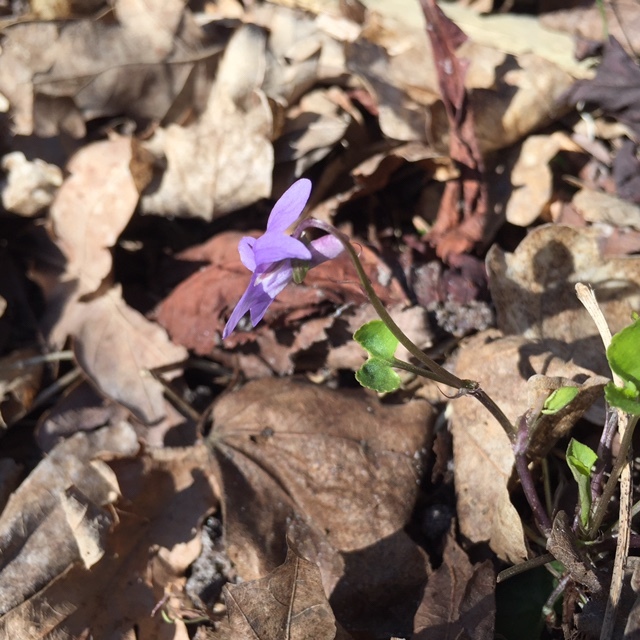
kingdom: Plantae
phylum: Tracheophyta
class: Magnoliopsida
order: Malpighiales
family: Violaceae
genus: Viola
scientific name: Viola reichenbachiana
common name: Early dog-violet
